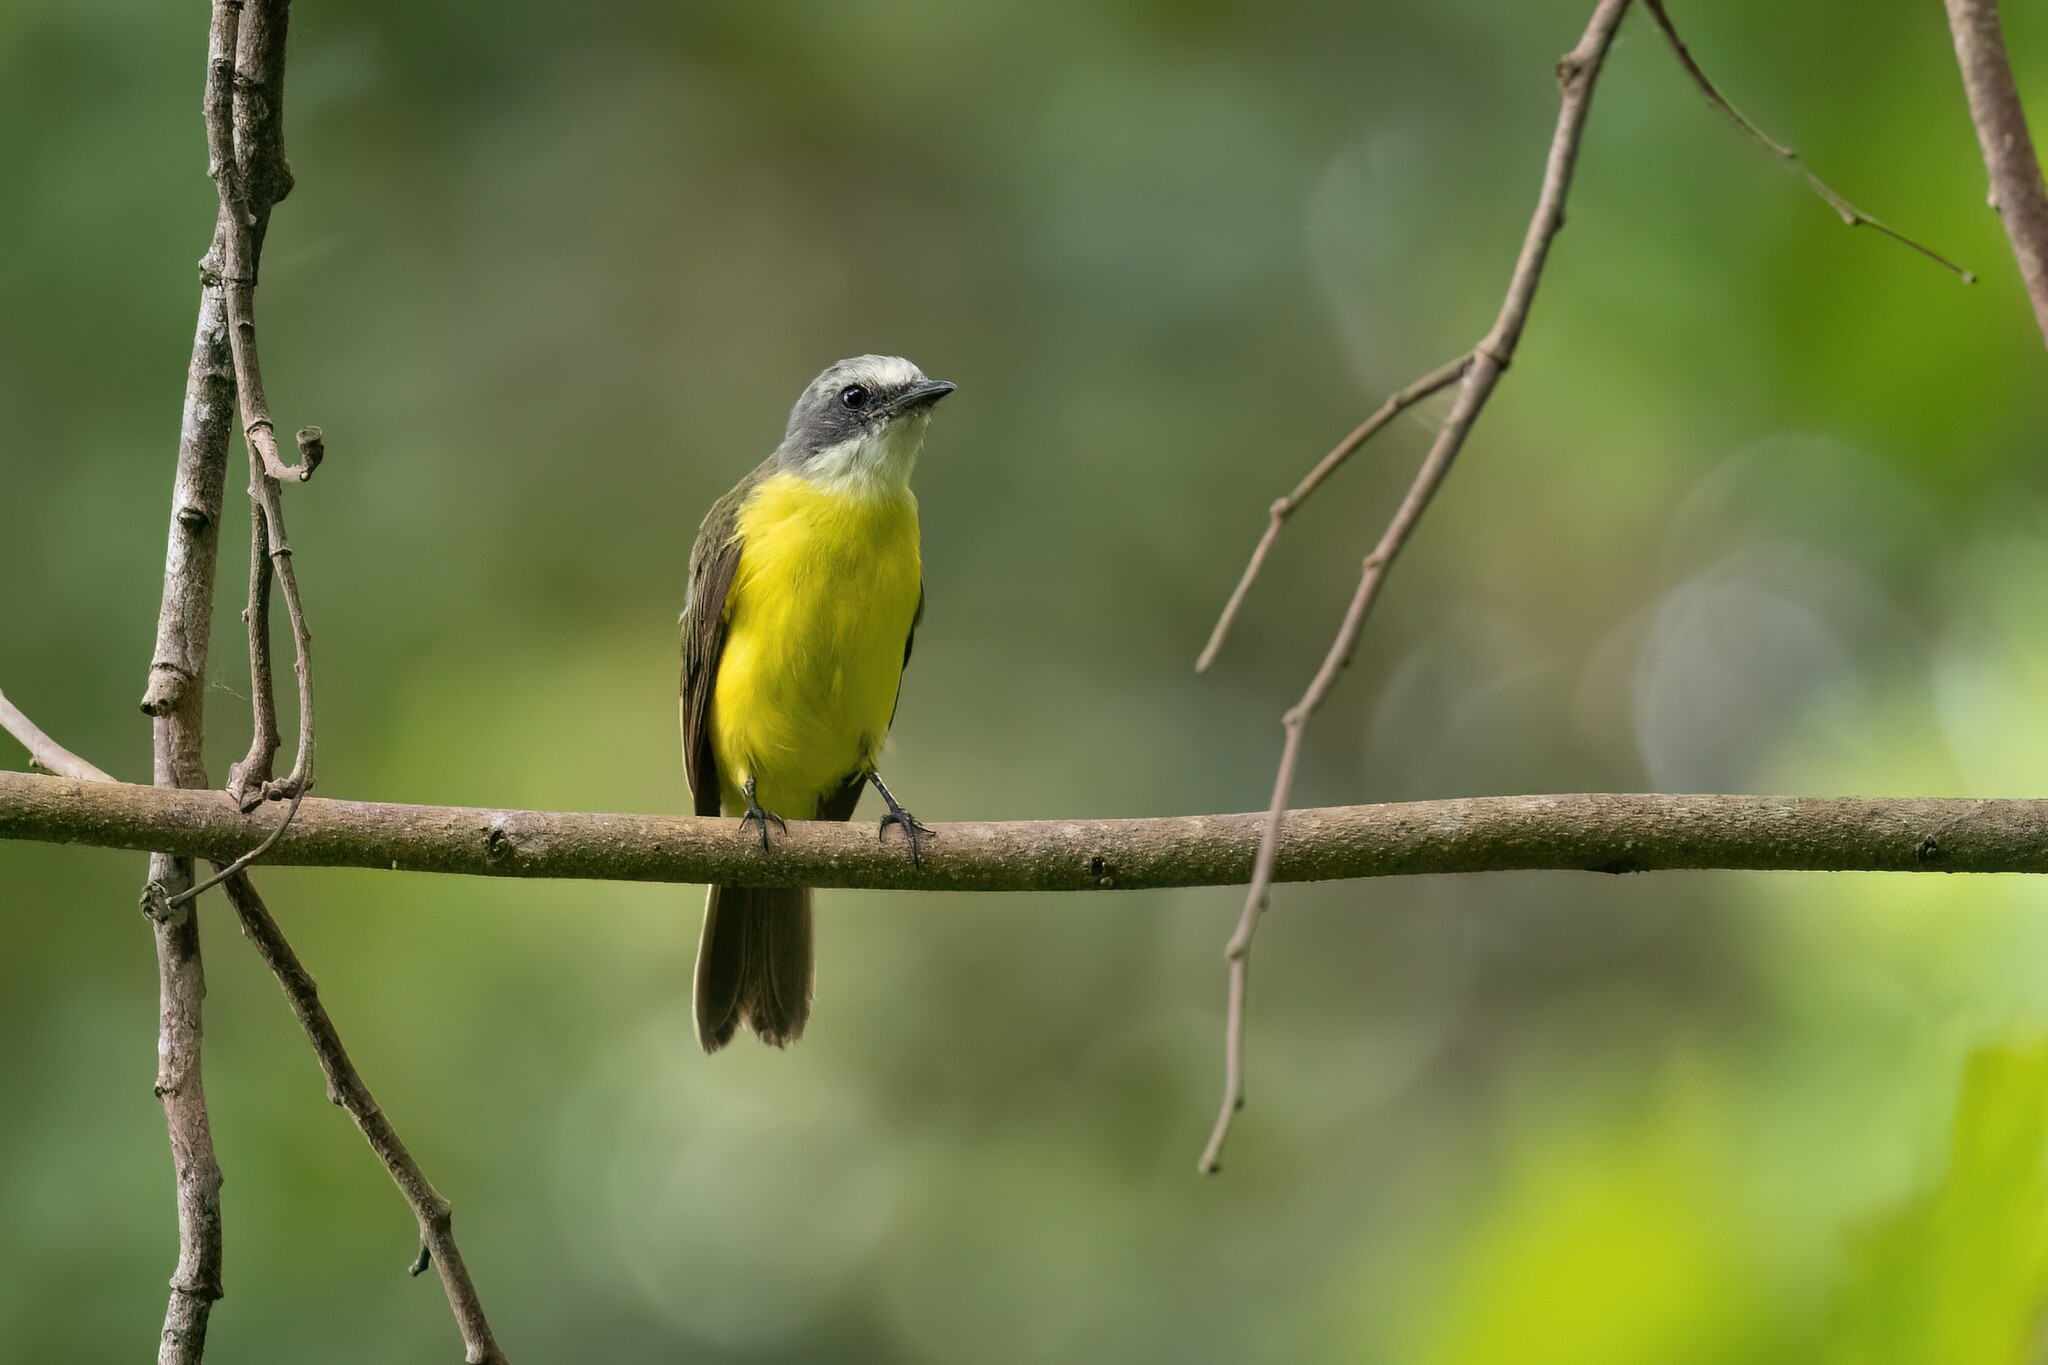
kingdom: Animalia
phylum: Chordata
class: Aves
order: Passeriformes
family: Tyrannidae
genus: Myiozetetes
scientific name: Myiozetetes granadensis
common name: Gray-capped flycatcher
